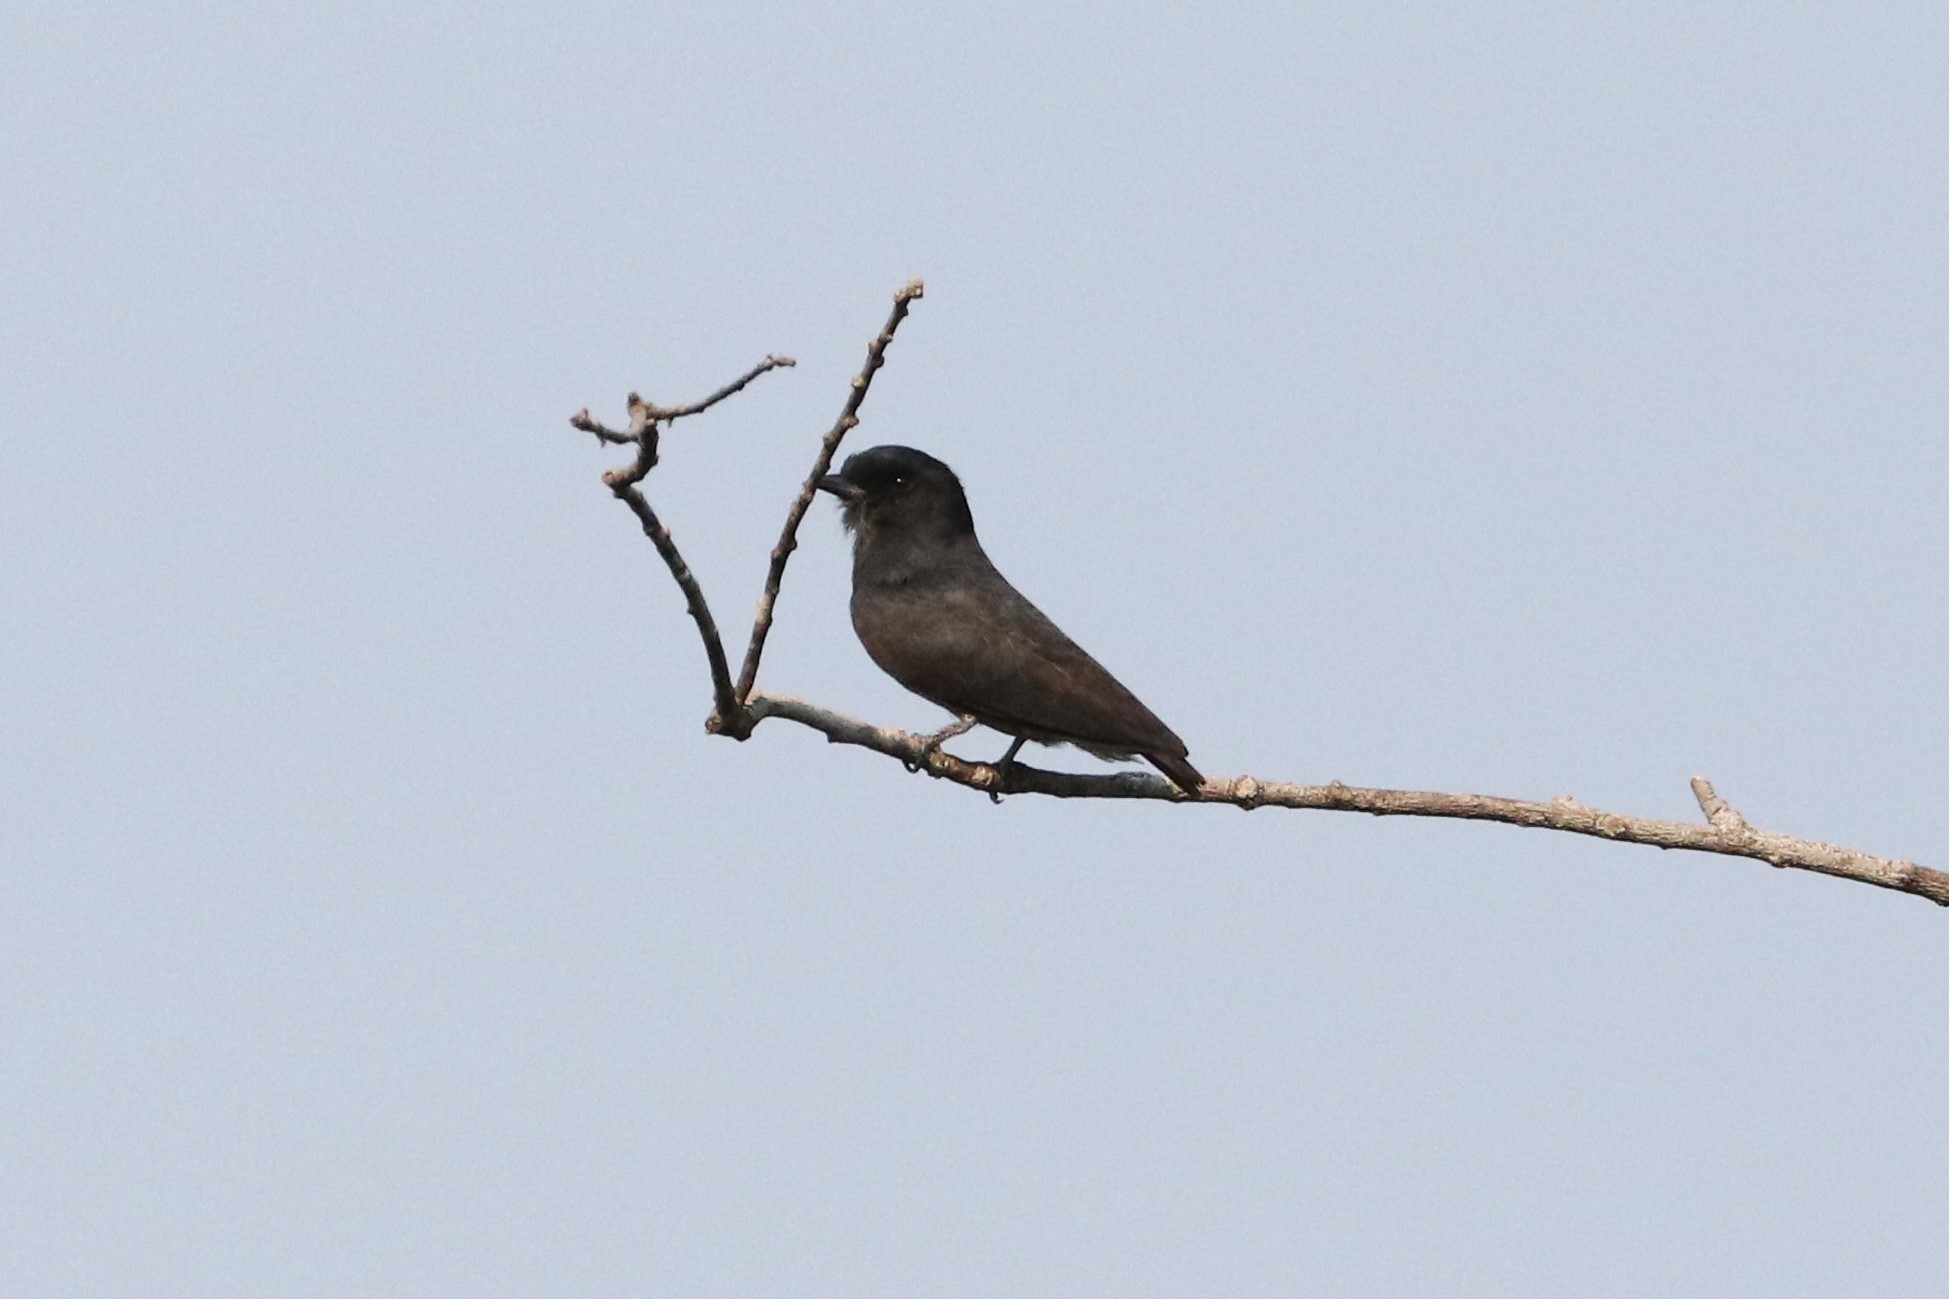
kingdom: Animalia
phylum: Chordata
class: Aves
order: Piciformes
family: Bucconidae
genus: Chelidoptera
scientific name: Chelidoptera tenebrosa
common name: Swallow-winged puffbird
